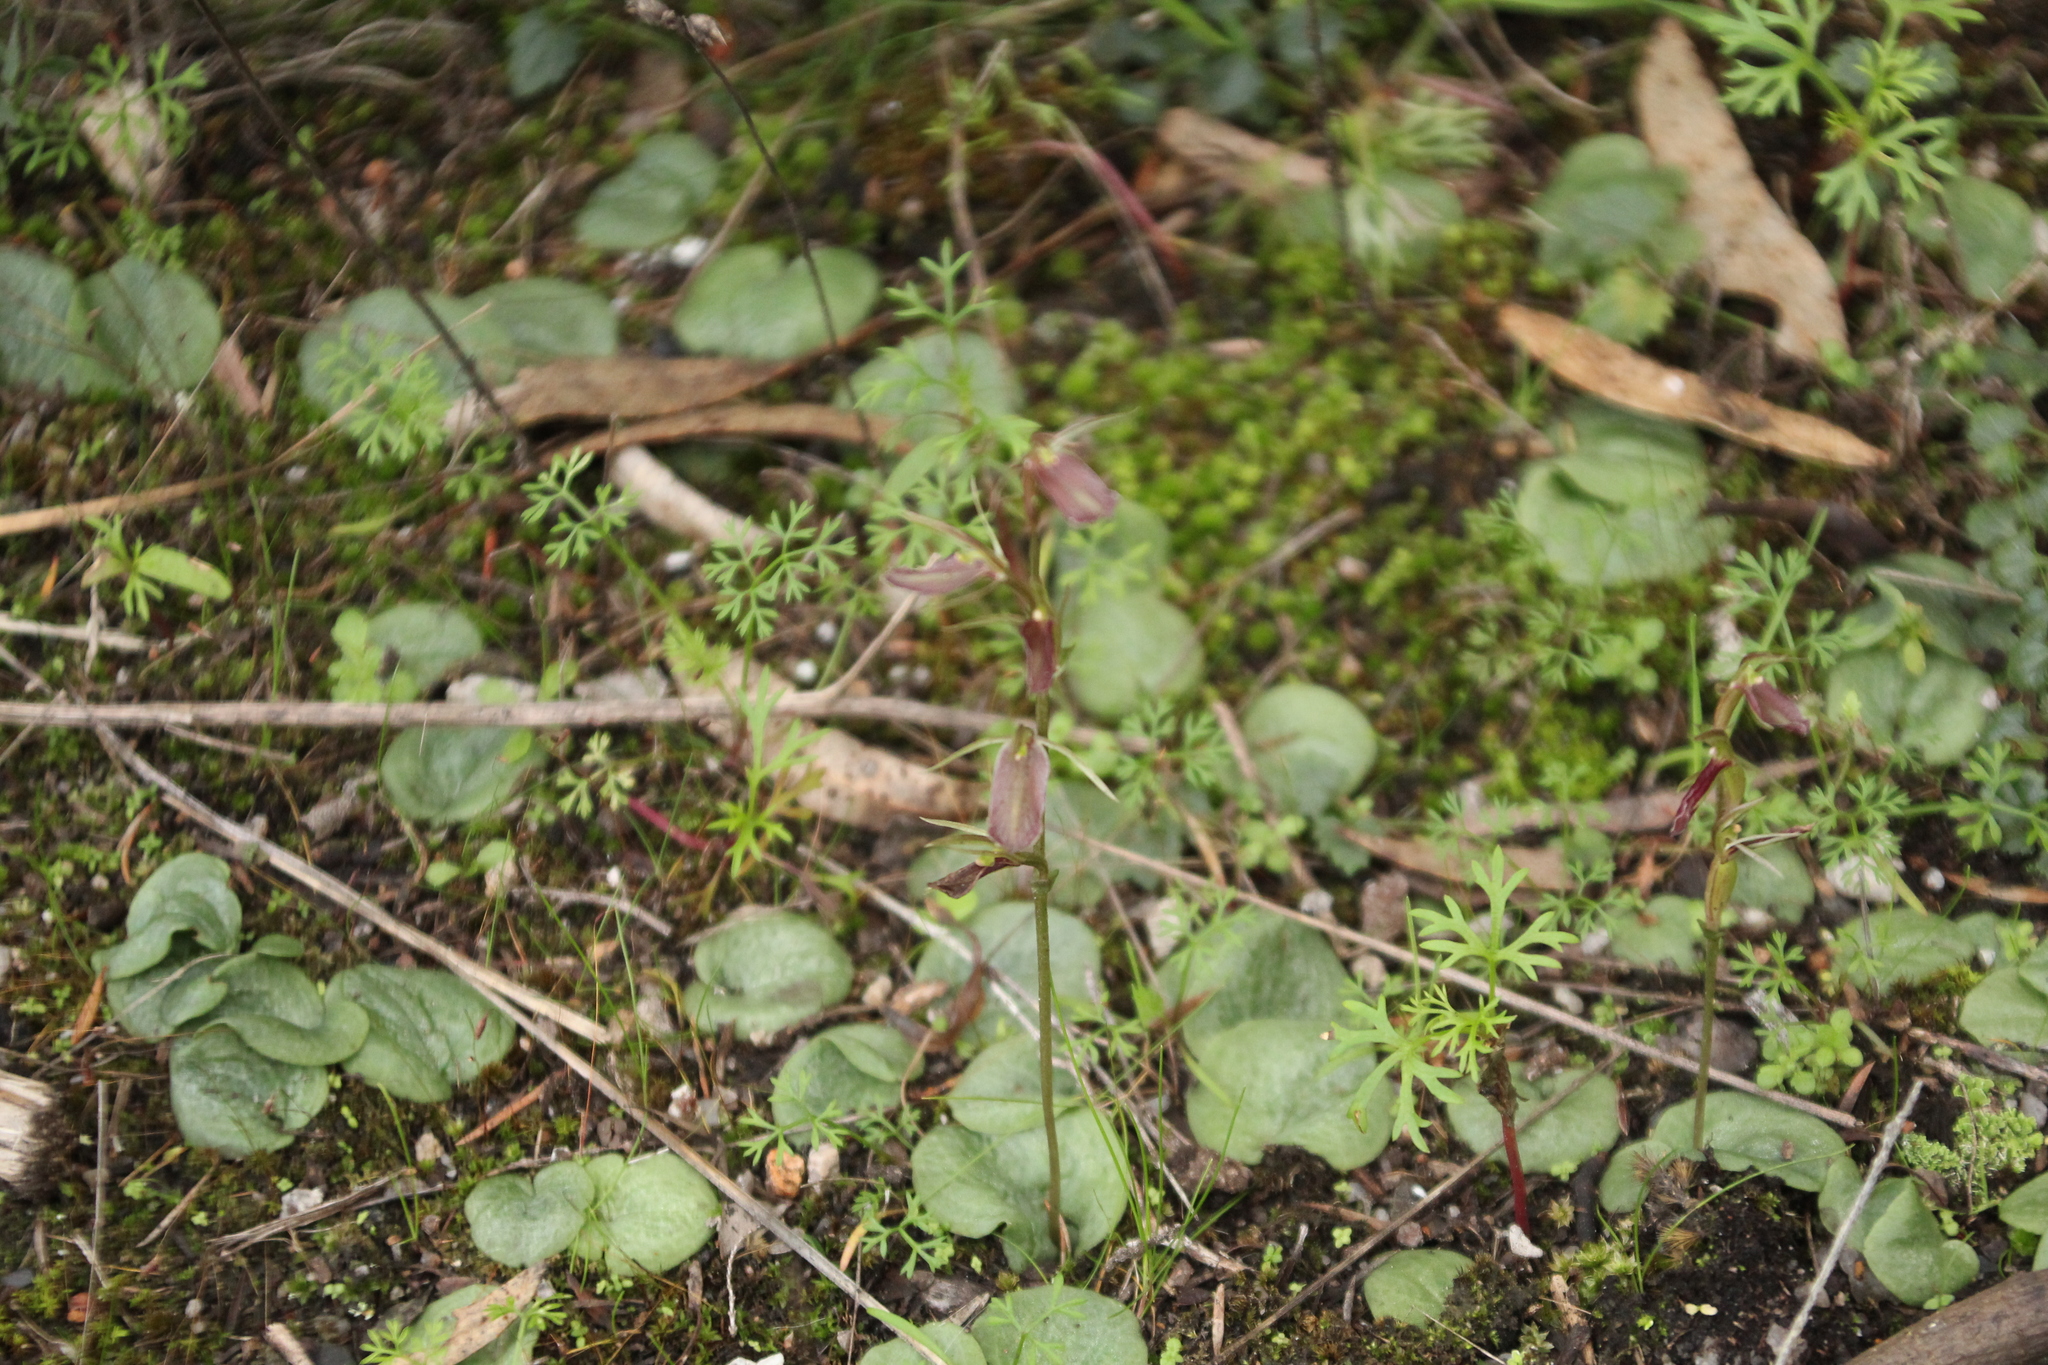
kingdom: Plantae
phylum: Tracheophyta
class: Liliopsida
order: Asparagales
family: Orchidaceae
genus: Cyrtostylis
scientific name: Cyrtostylis robusta
